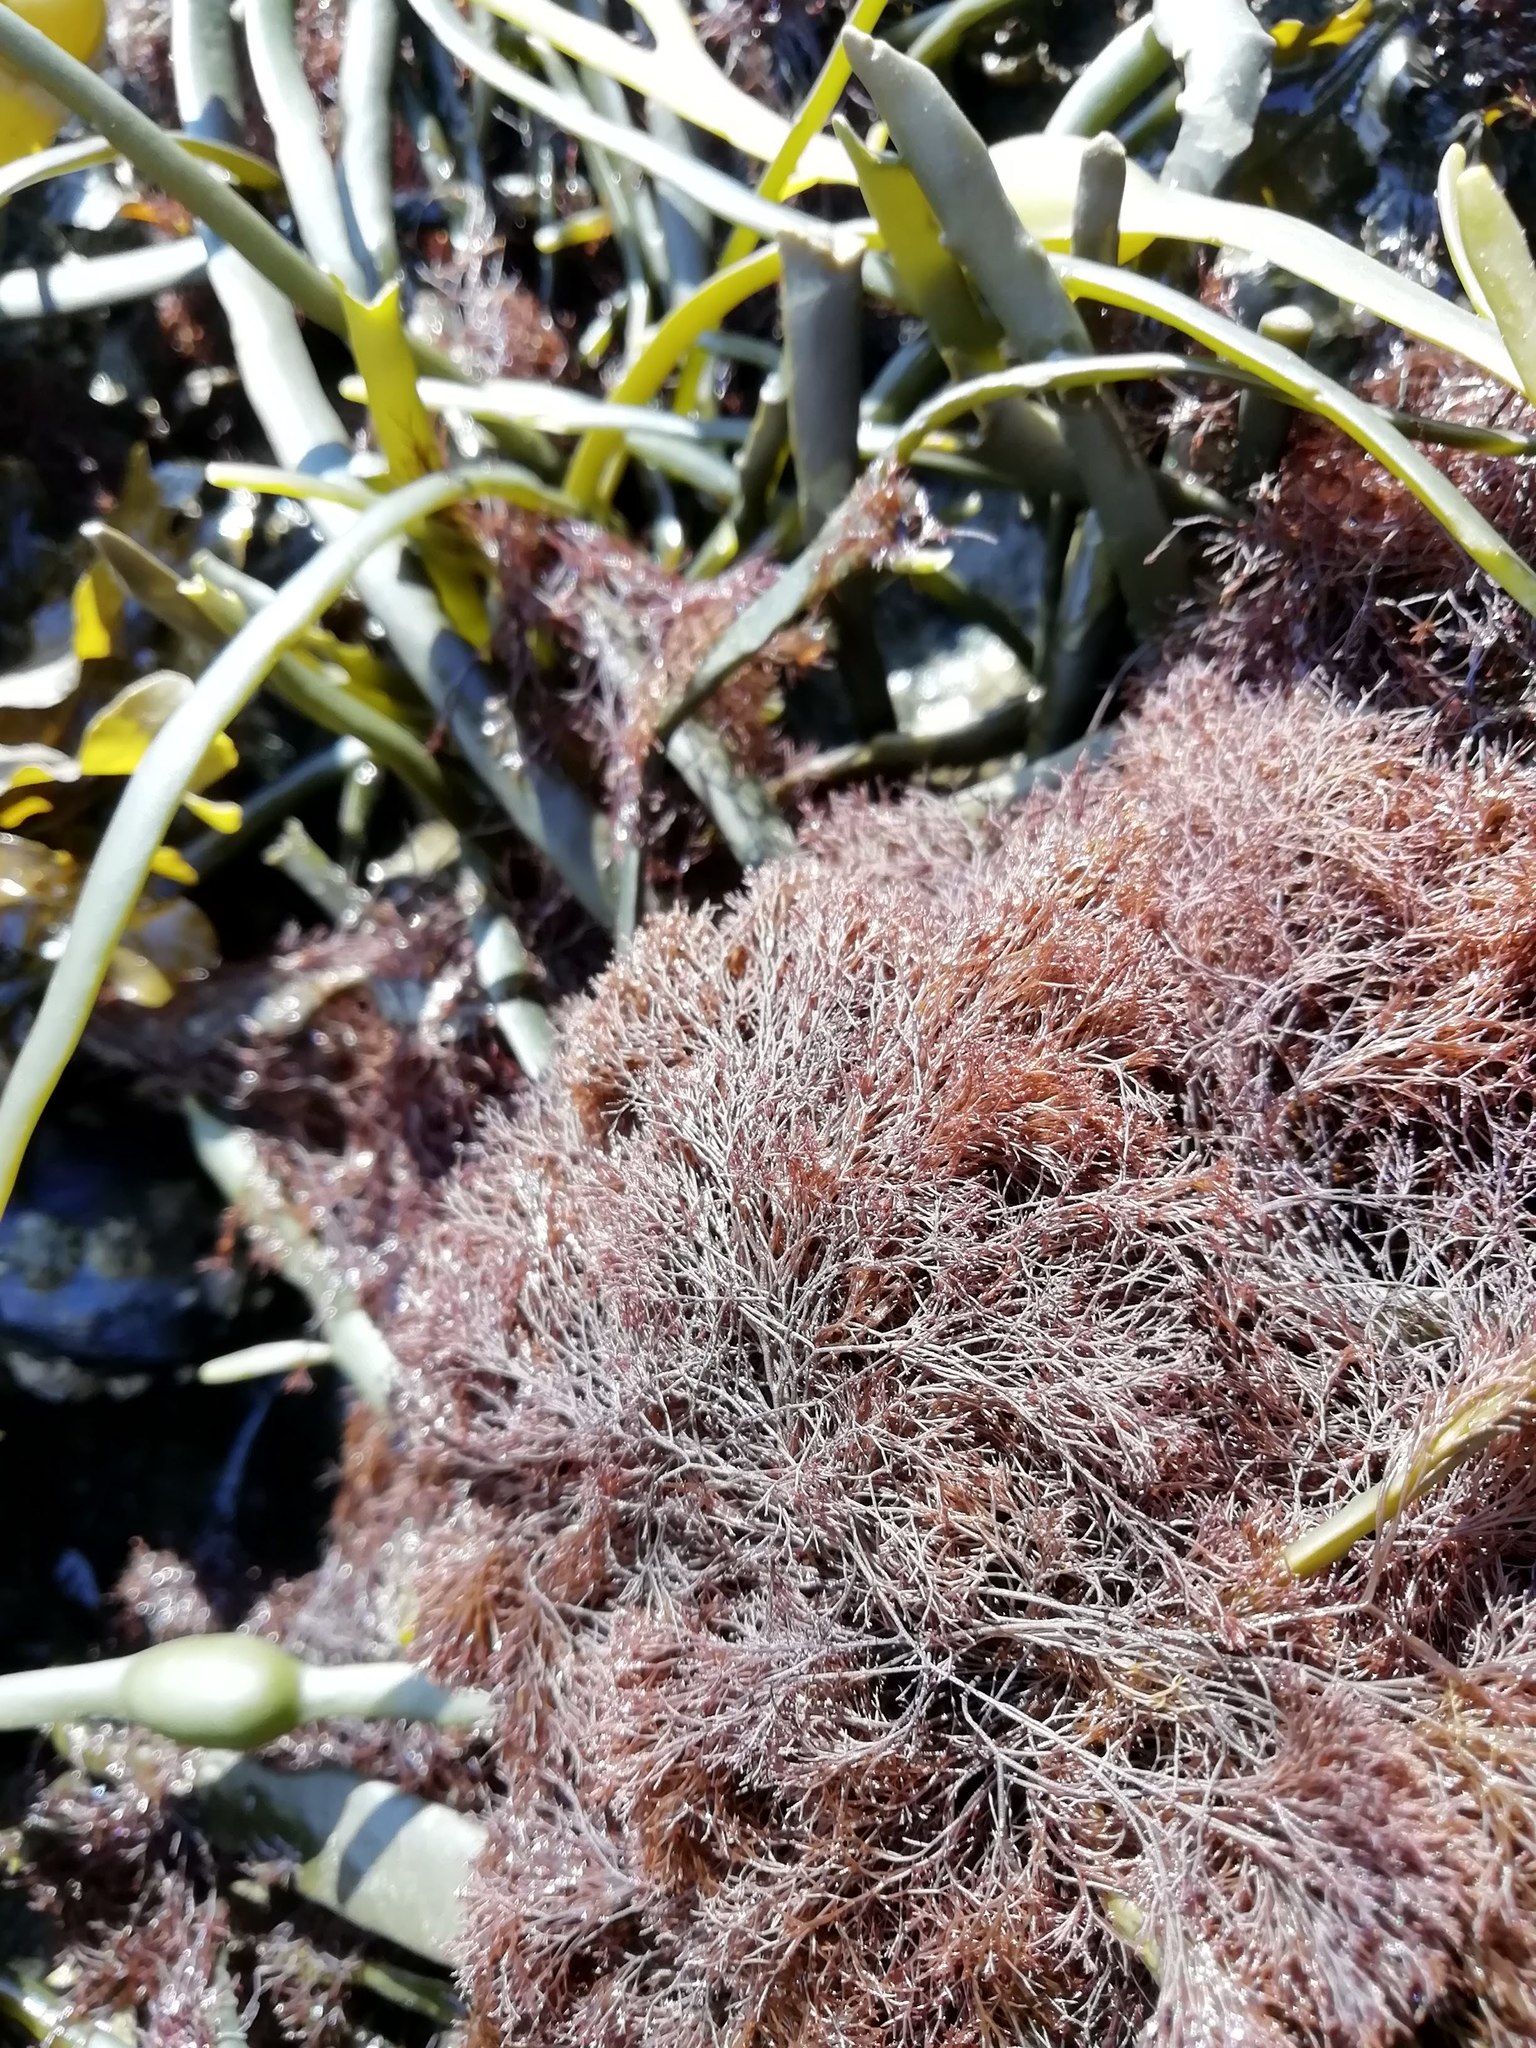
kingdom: Plantae
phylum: Rhodophyta
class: Florideophyceae
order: Ceramiales
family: Rhodomelaceae
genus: Vertebrata
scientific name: Vertebrata lanosa
